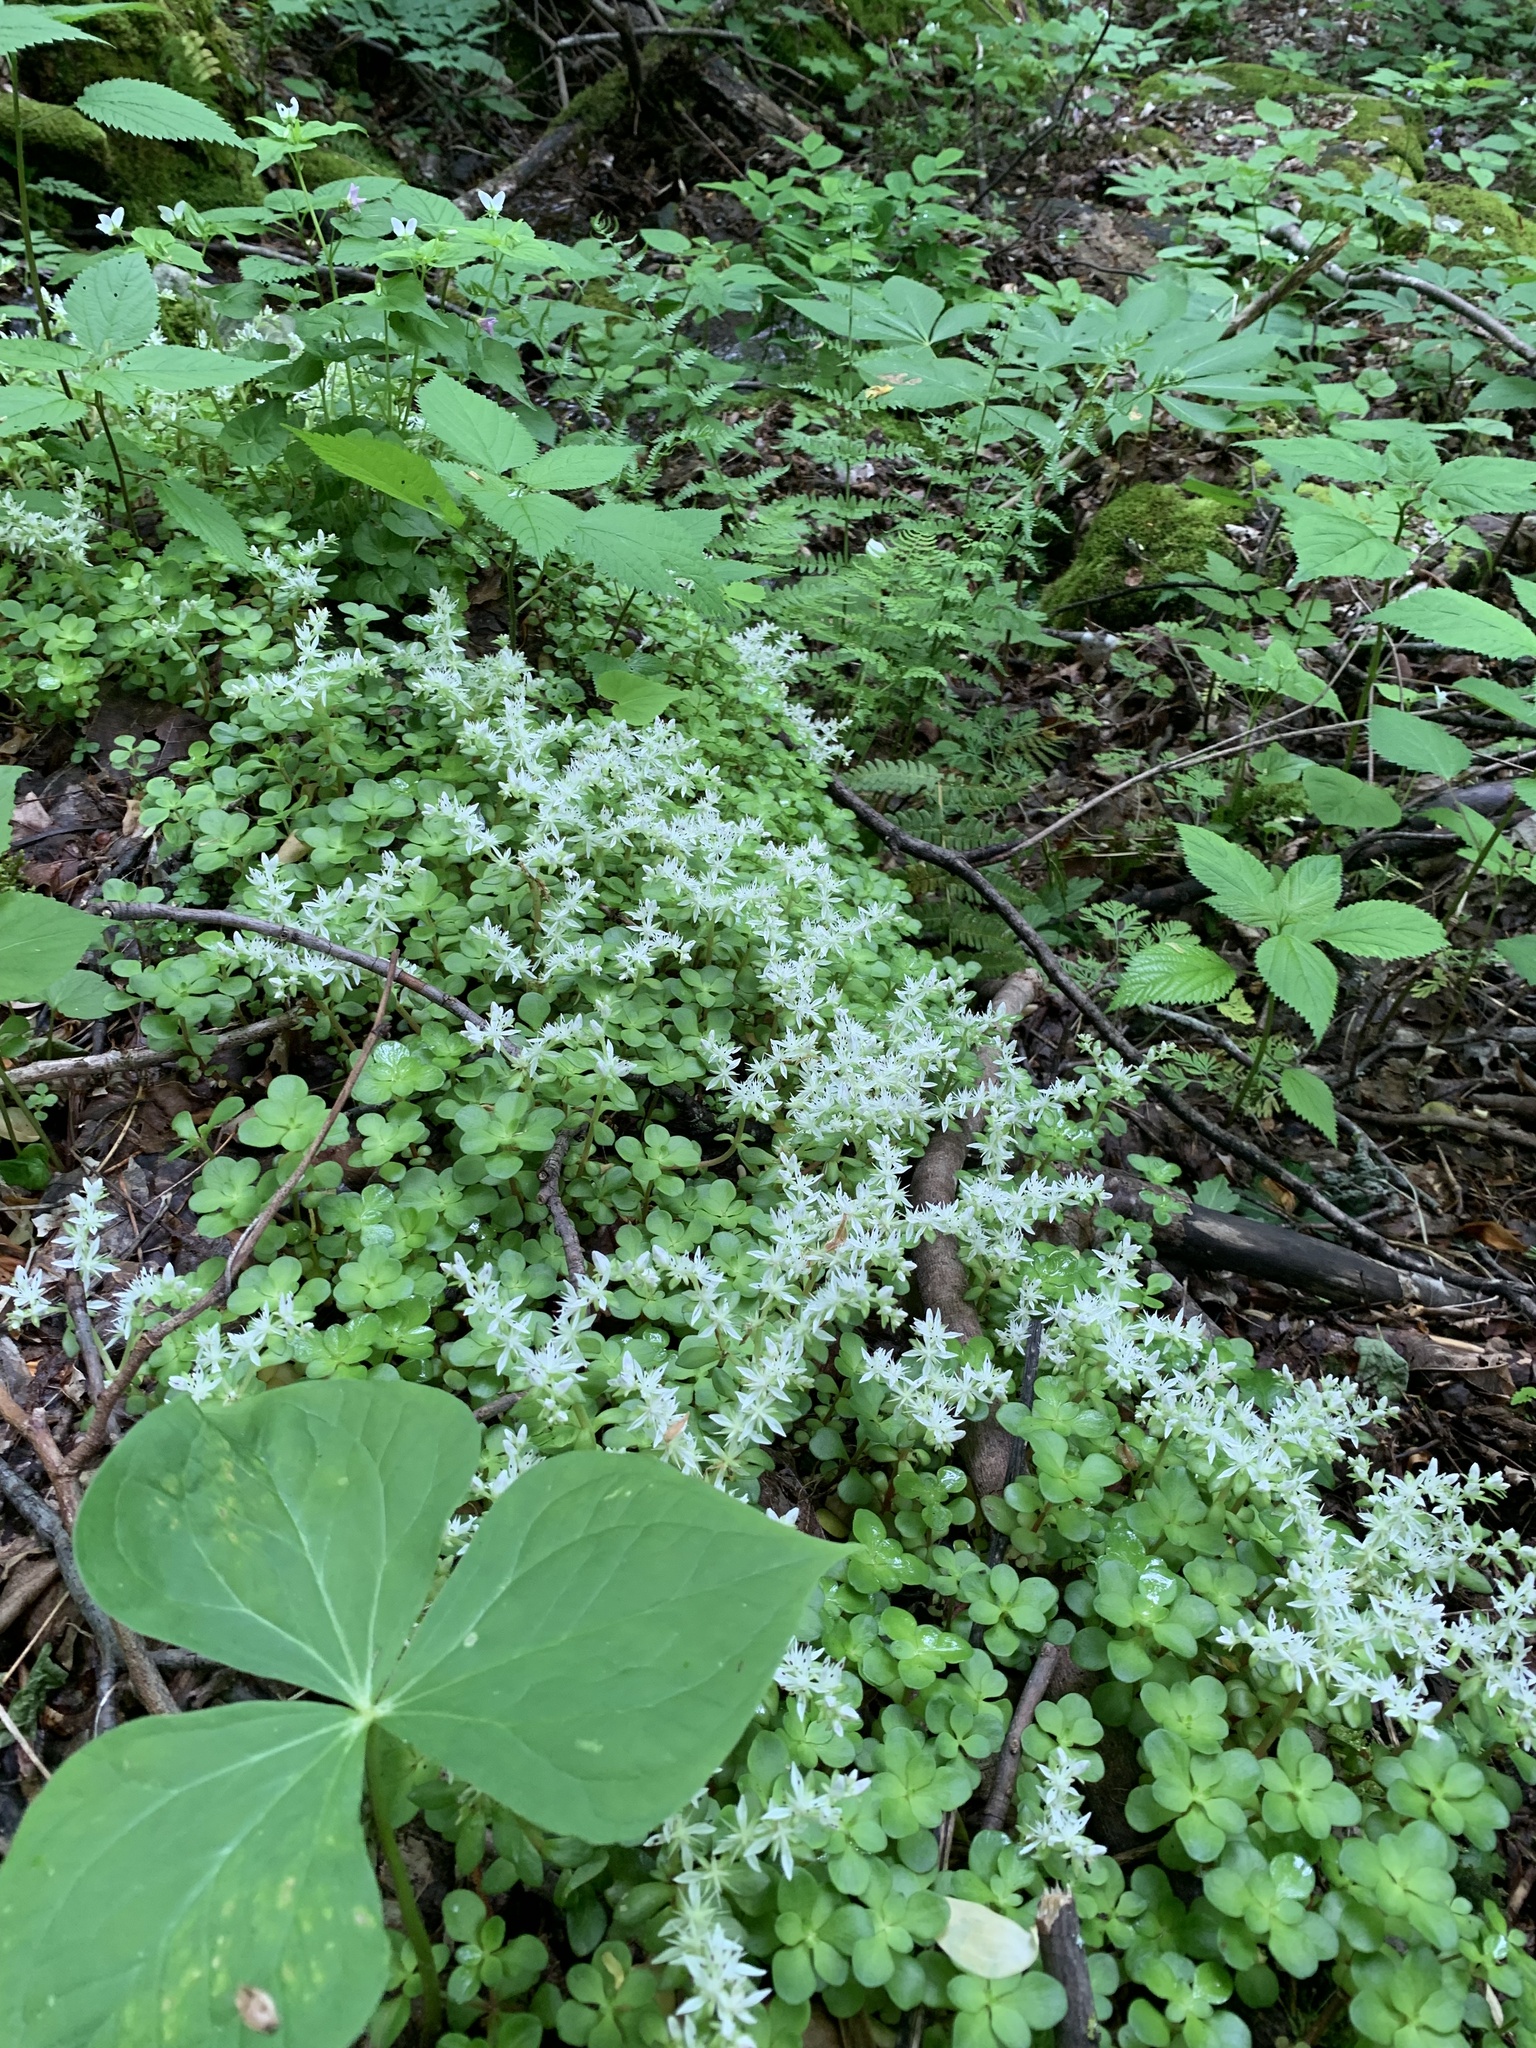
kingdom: Plantae
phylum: Tracheophyta
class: Magnoliopsida
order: Saxifragales
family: Crassulaceae
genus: Sedum
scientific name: Sedum ternatum
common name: Wild stonecrop
